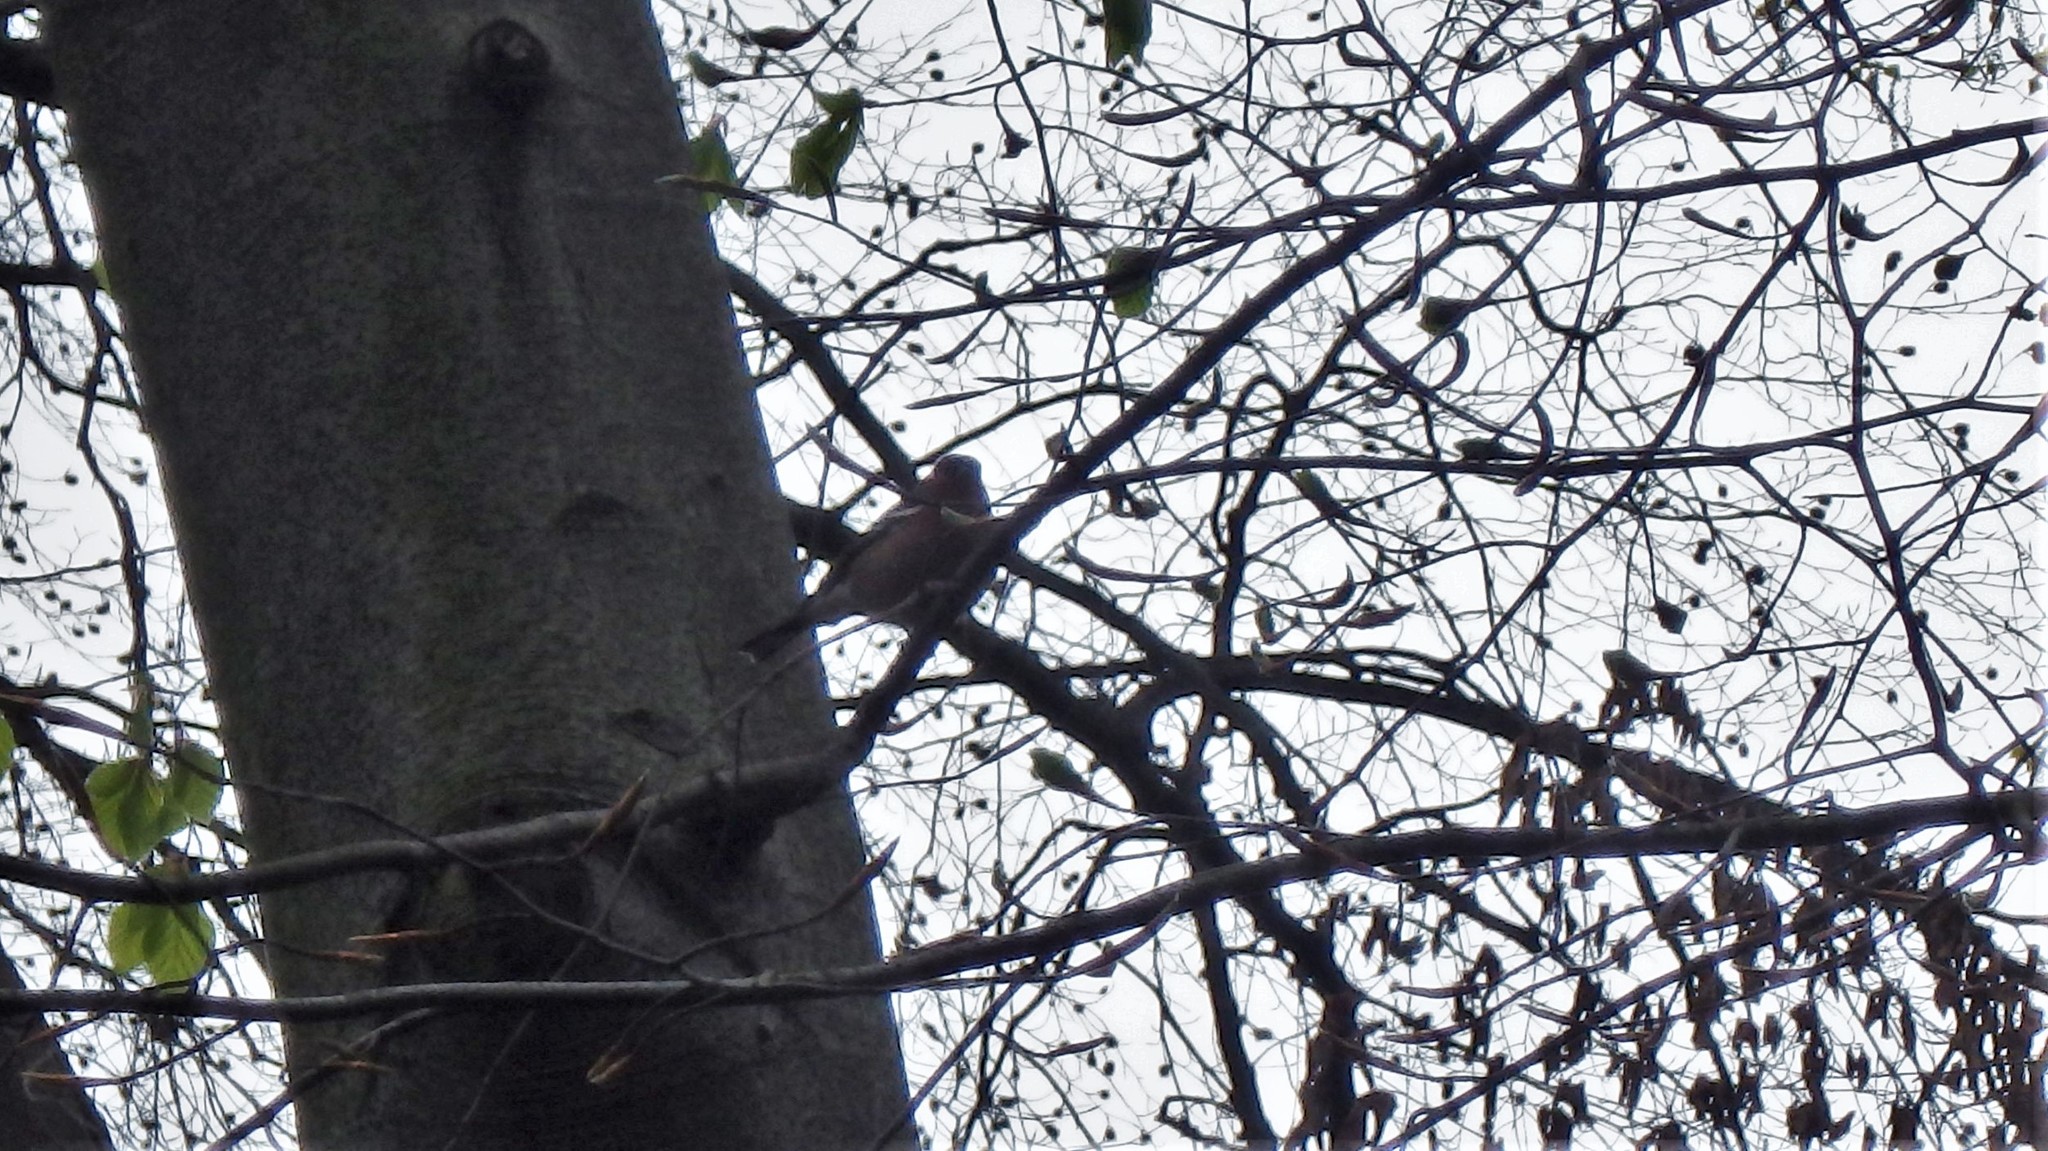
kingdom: Animalia
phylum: Chordata
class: Aves
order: Passeriformes
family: Fringillidae
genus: Fringilla
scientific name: Fringilla coelebs
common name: Common chaffinch
